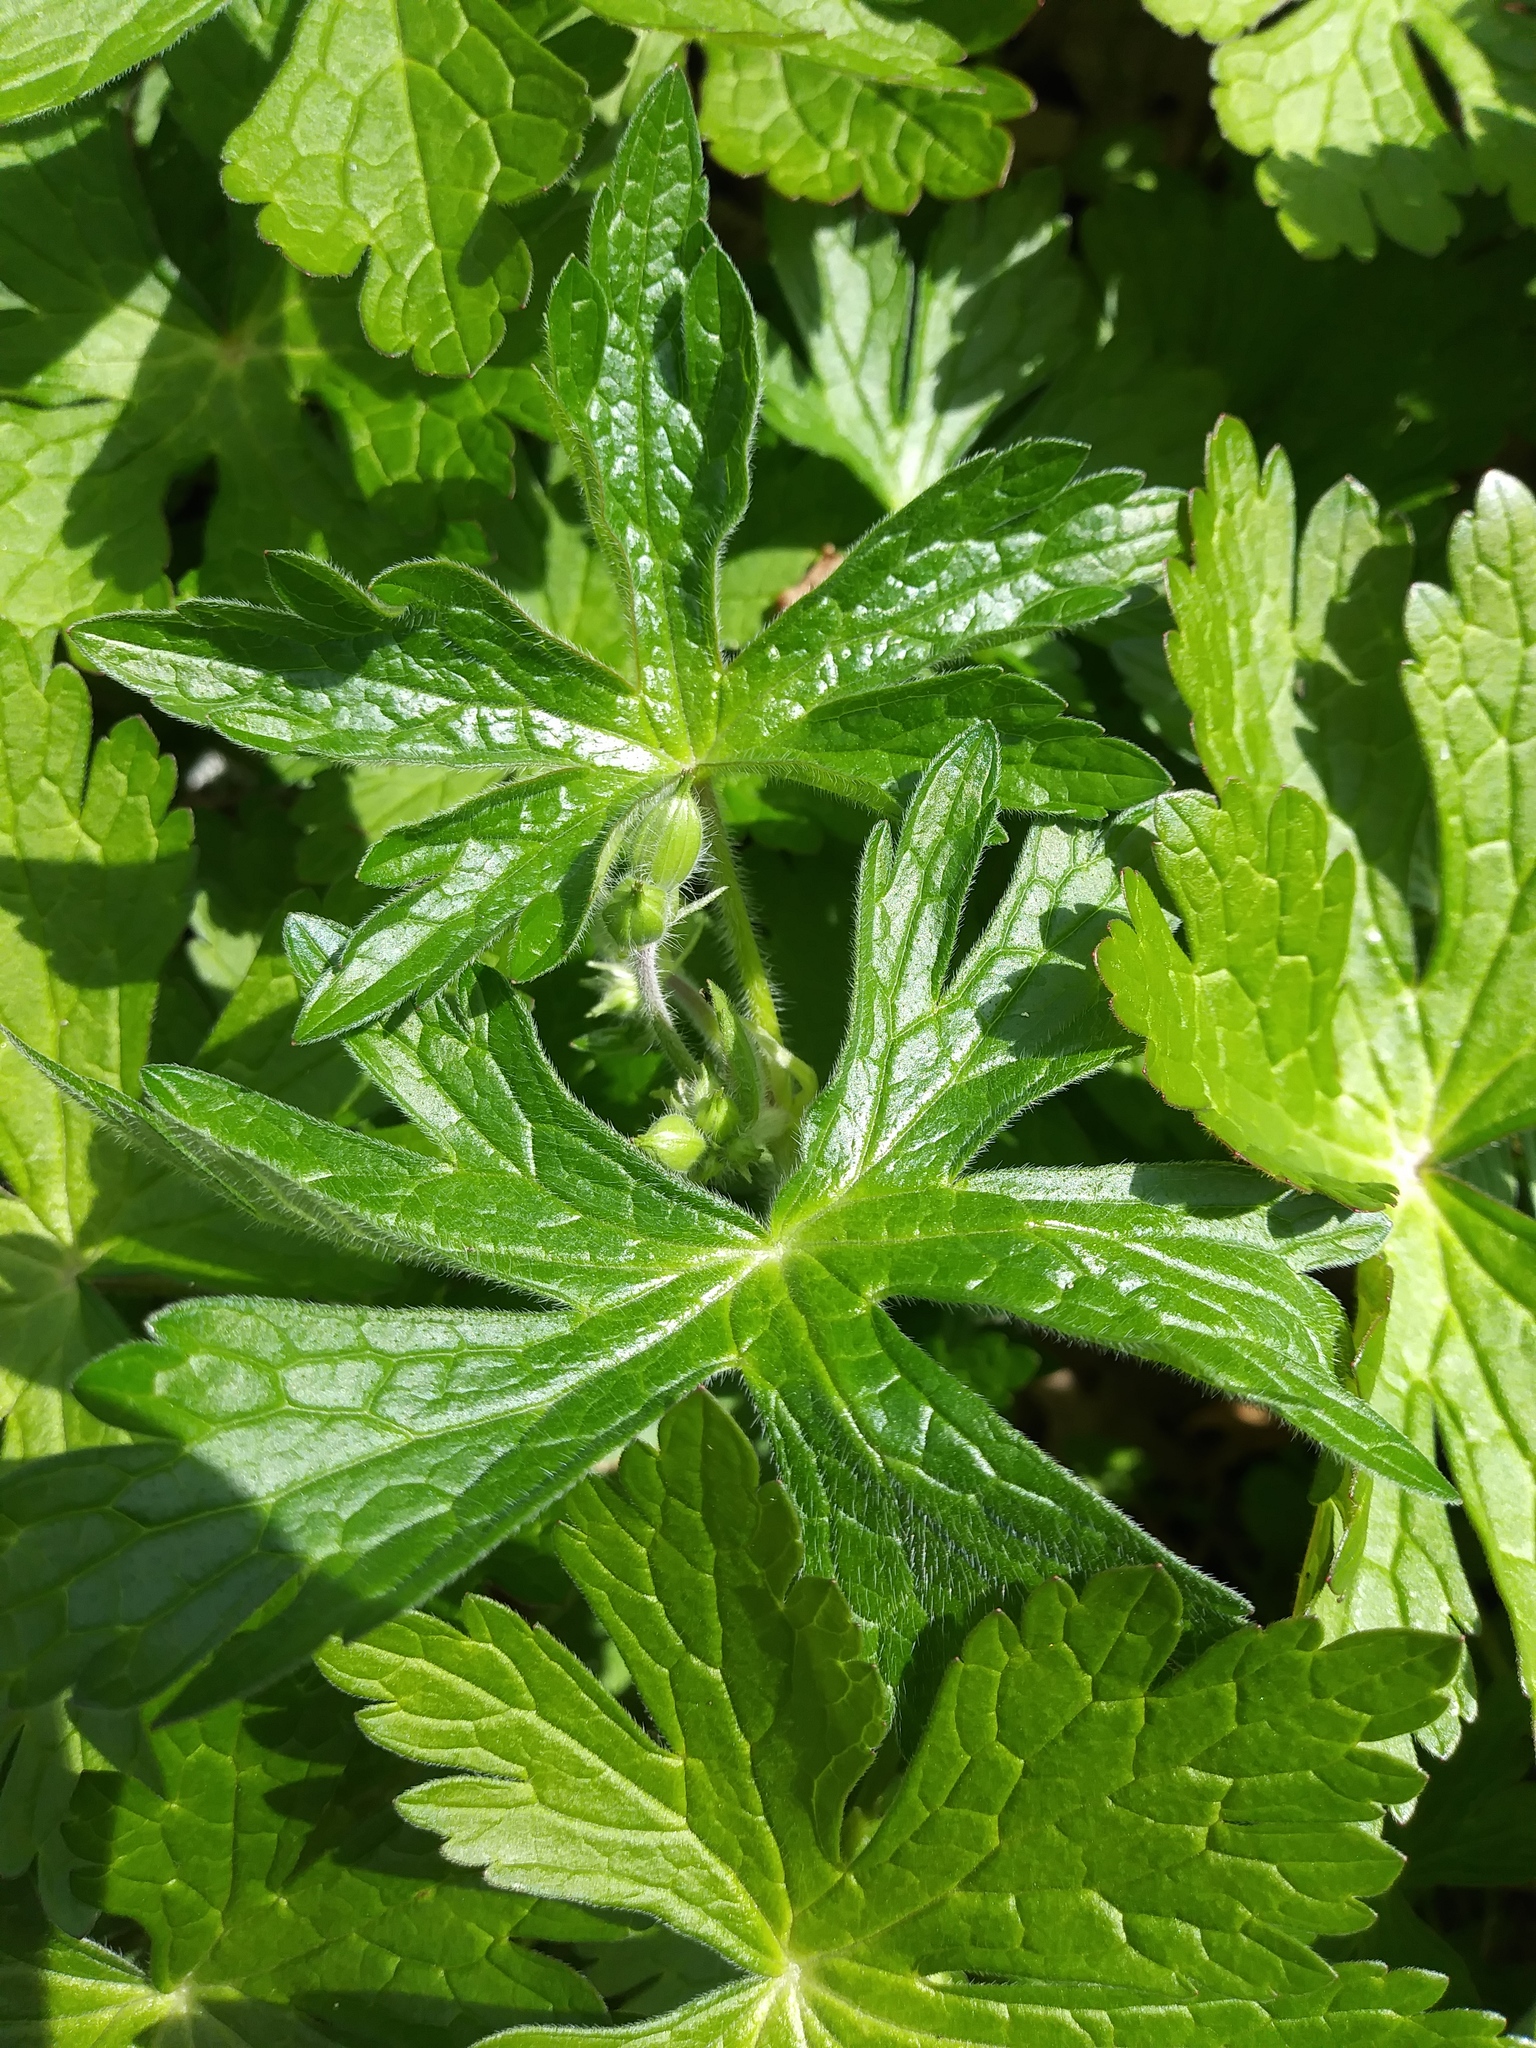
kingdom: Plantae
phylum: Tracheophyta
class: Magnoliopsida
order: Geraniales
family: Geraniaceae
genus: Geranium
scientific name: Geranium maculatum
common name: Spotted geranium
